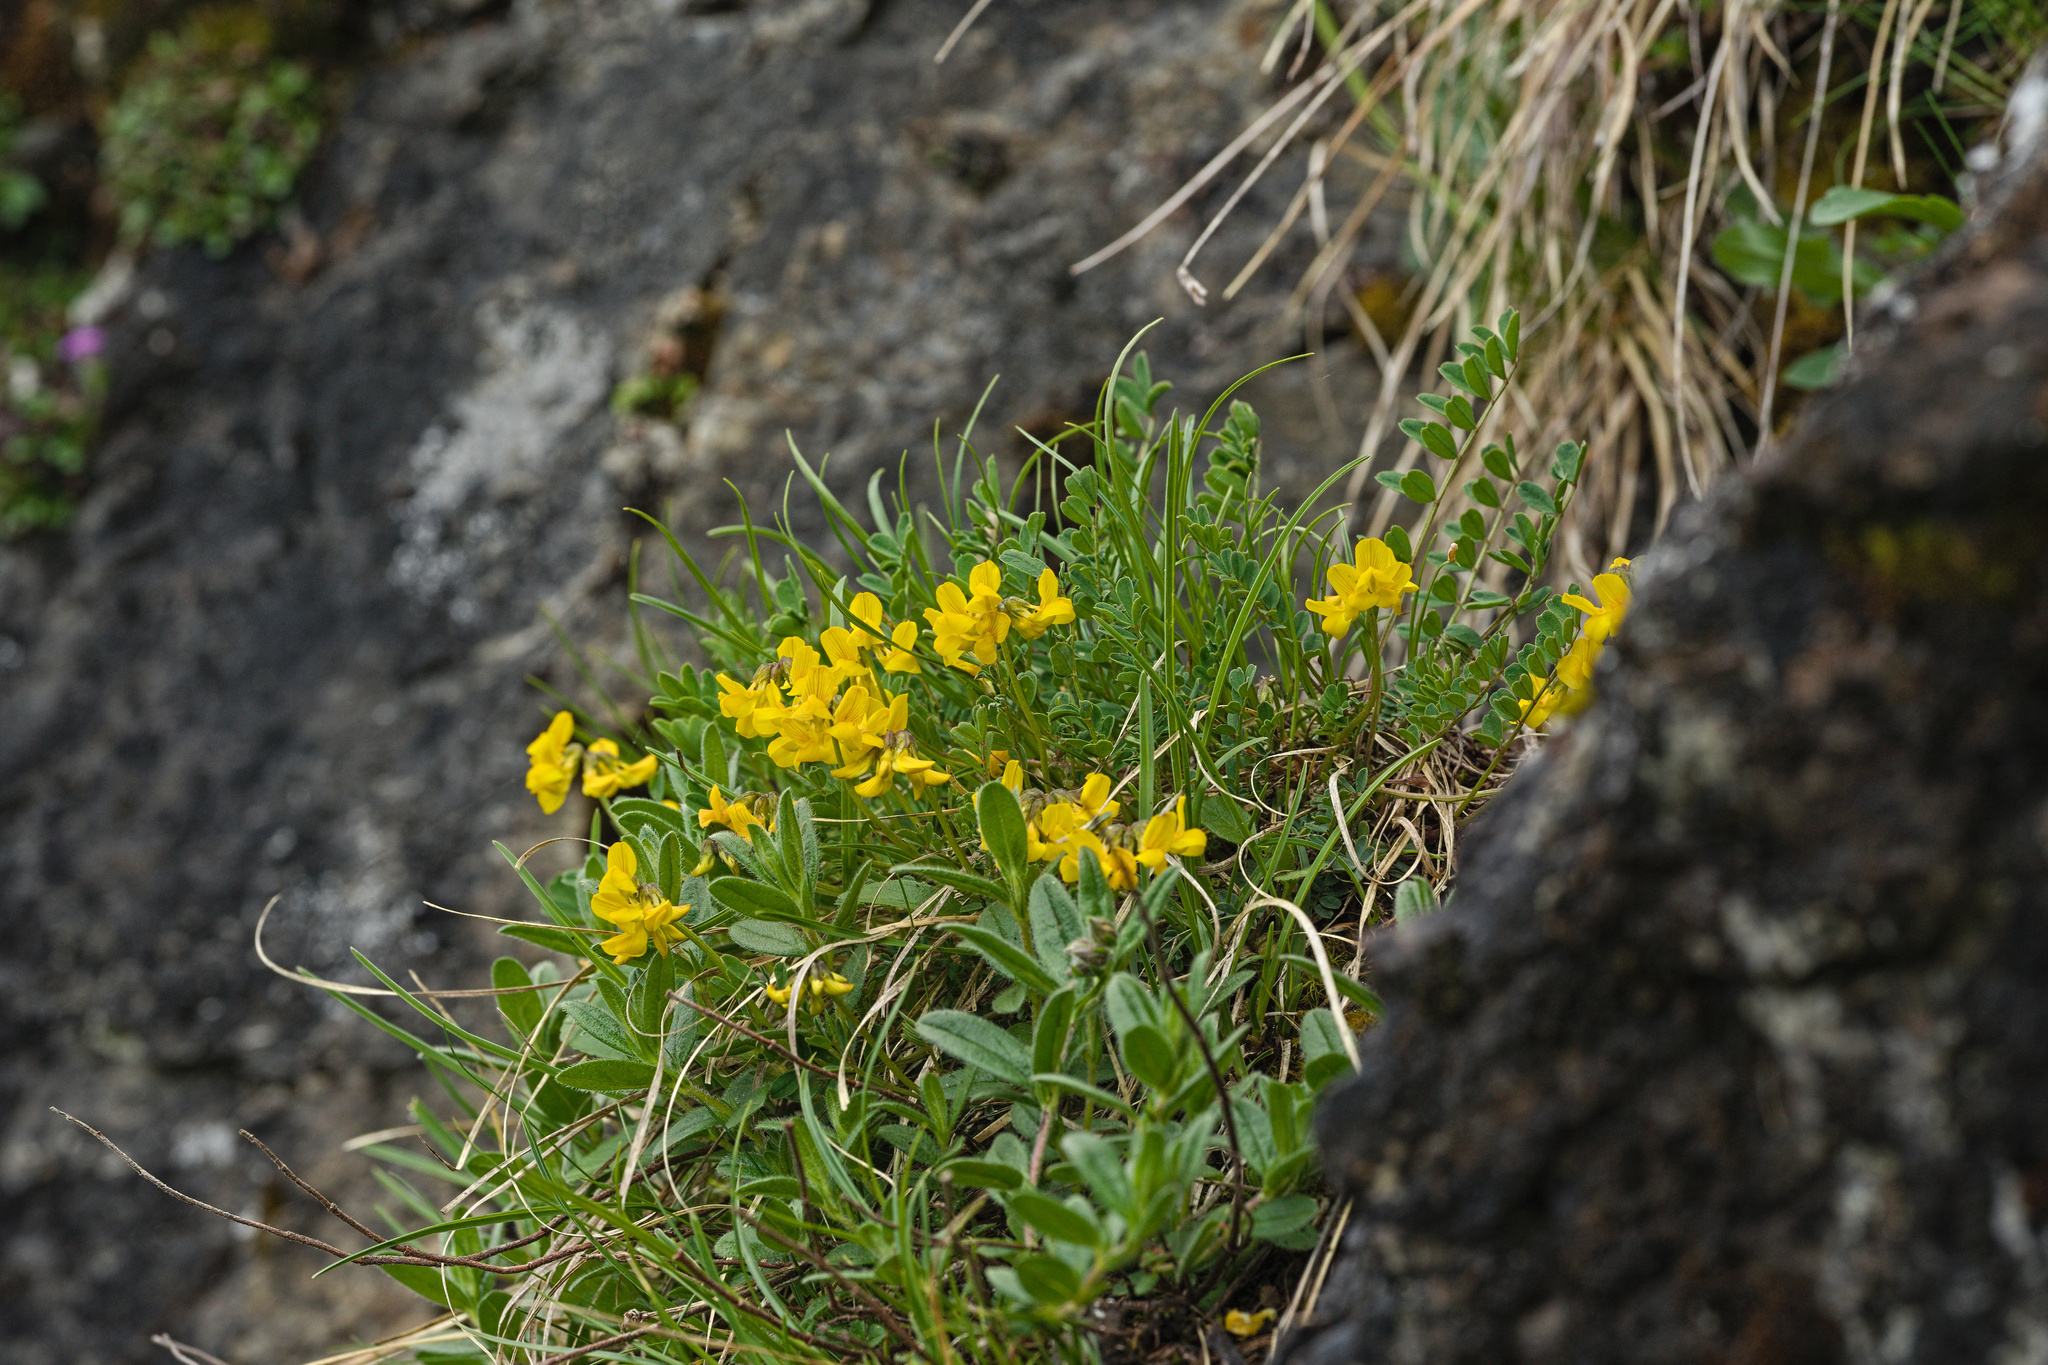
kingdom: Plantae
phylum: Tracheophyta
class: Magnoliopsida
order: Fabales
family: Fabaceae
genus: Hippocrepis
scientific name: Hippocrepis comosa
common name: Horseshoe vetch
